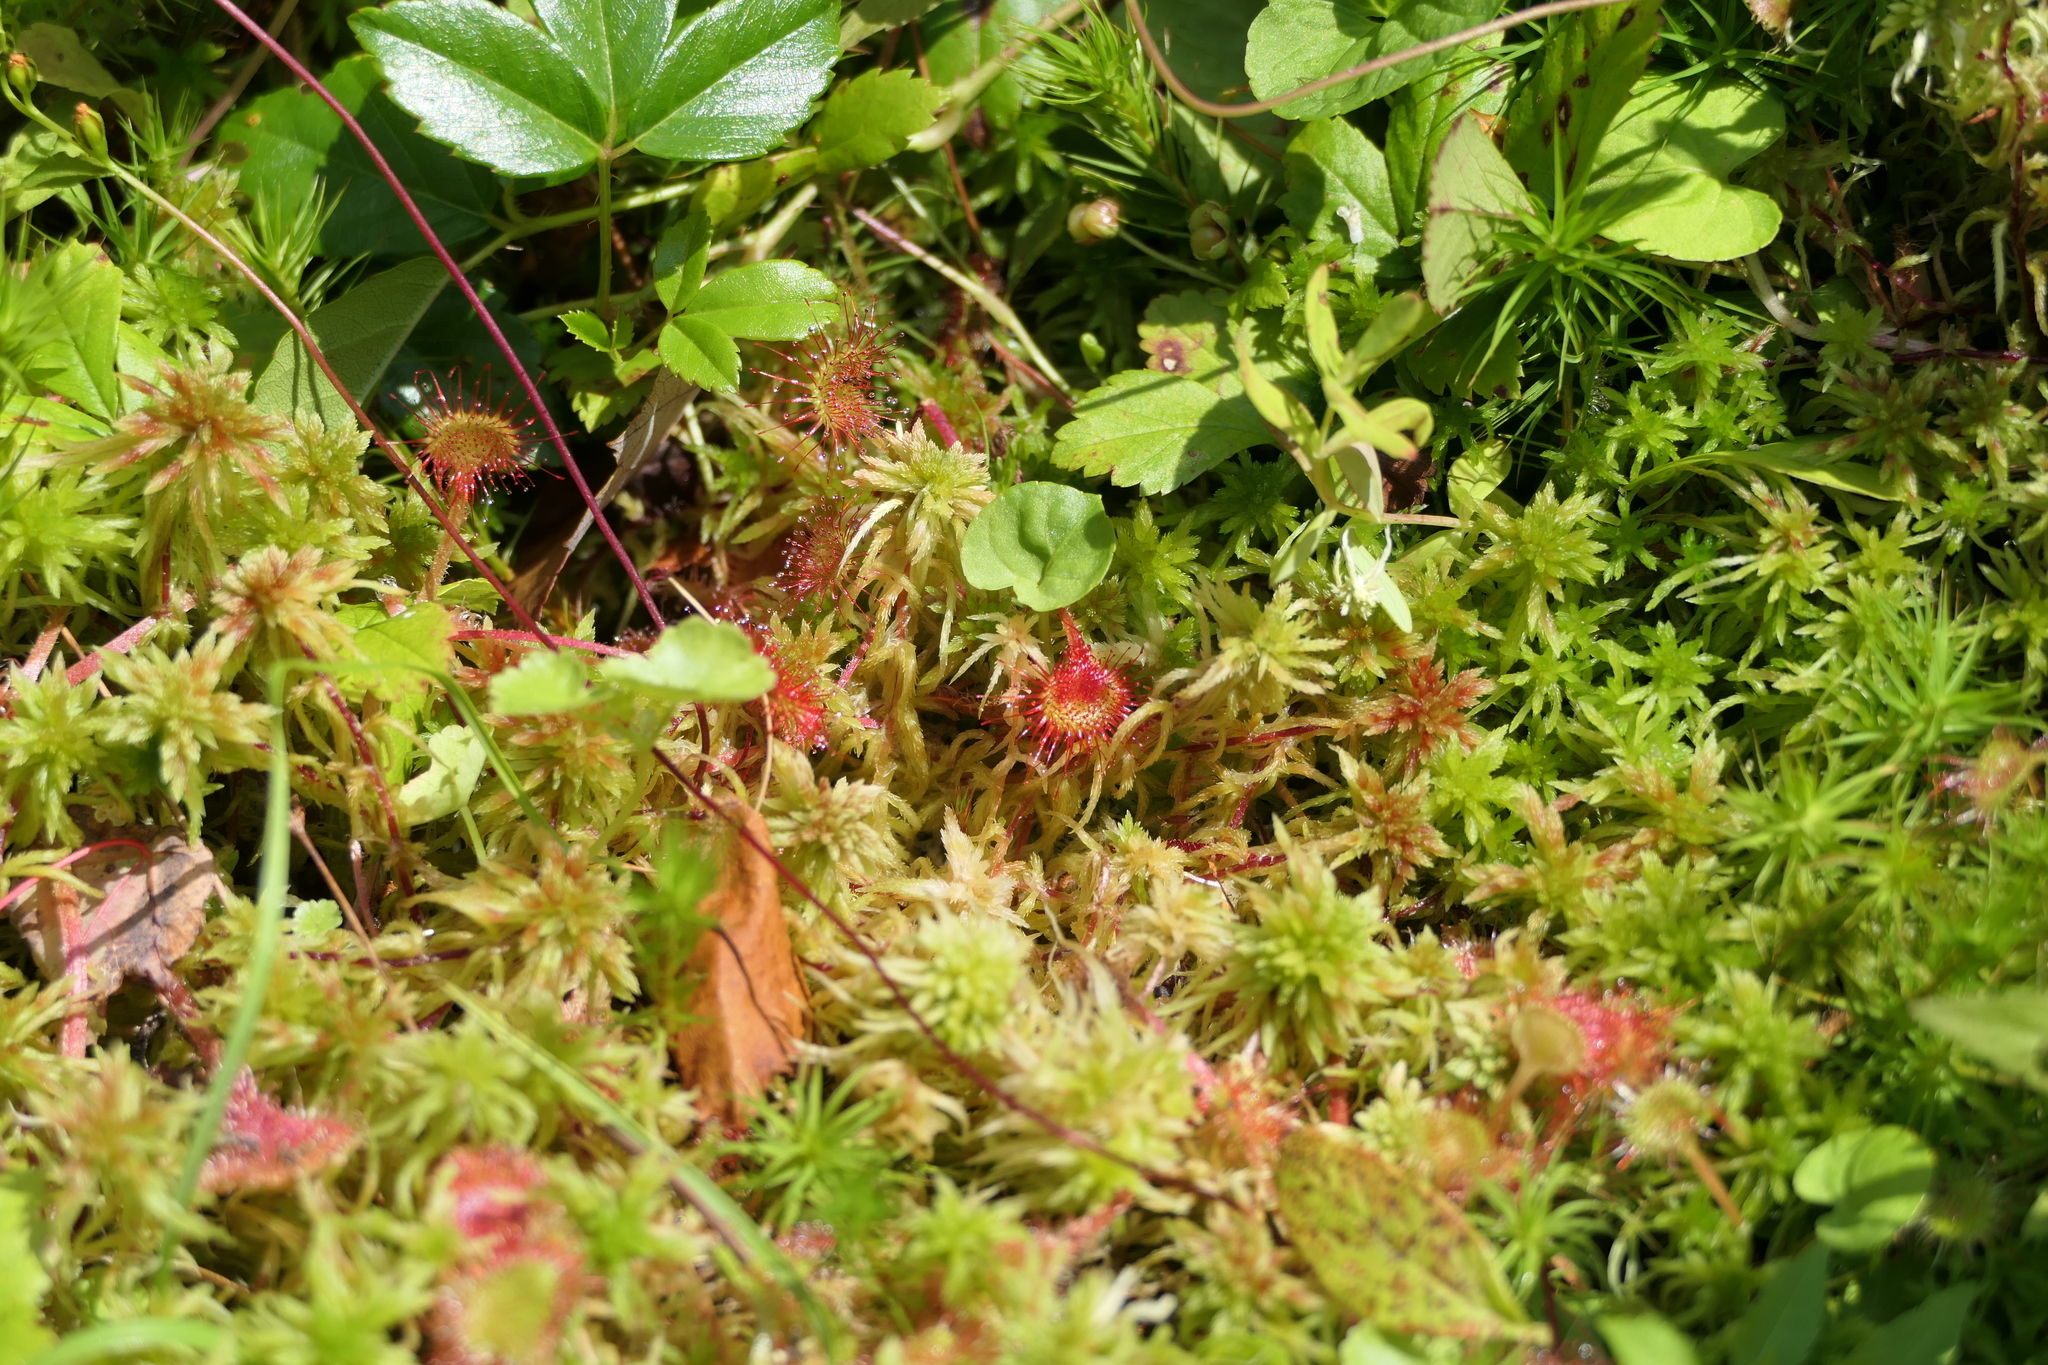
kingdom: Plantae
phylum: Tracheophyta
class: Magnoliopsida
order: Caryophyllales
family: Droseraceae
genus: Drosera
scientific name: Drosera rotundifolia
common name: Round-leaved sundew
